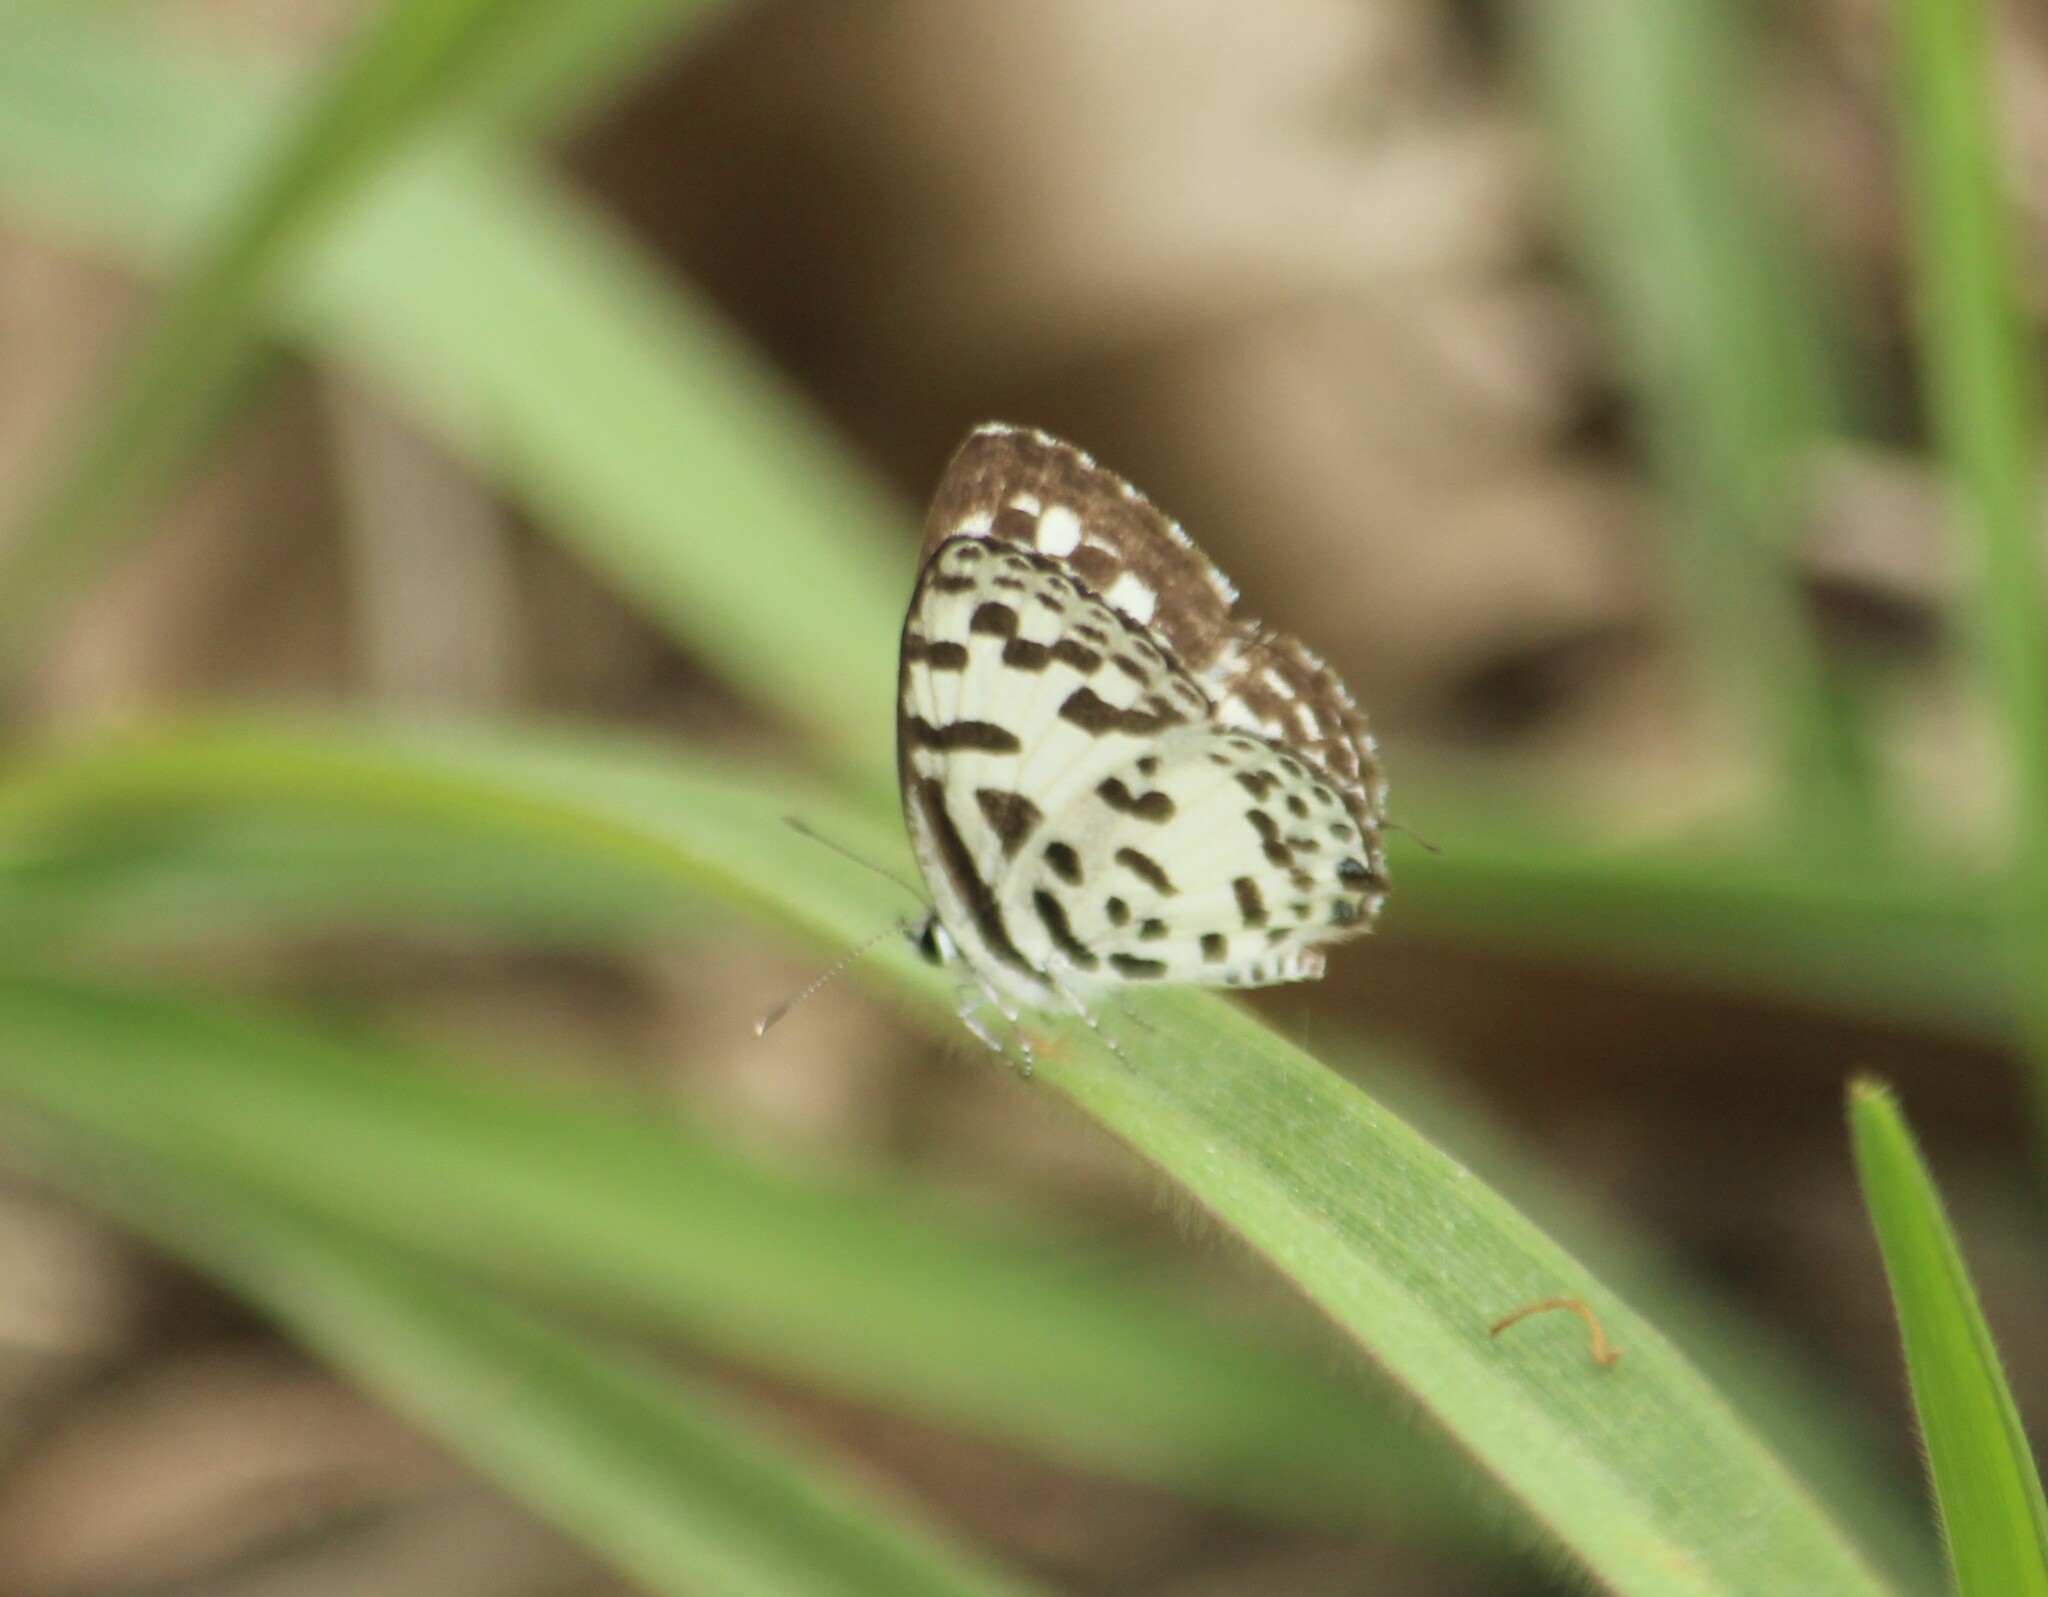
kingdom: Animalia
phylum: Arthropoda
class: Insecta
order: Lepidoptera
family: Lycaenidae
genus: Castalius
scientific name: Castalius rosimon
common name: Common pierrot
